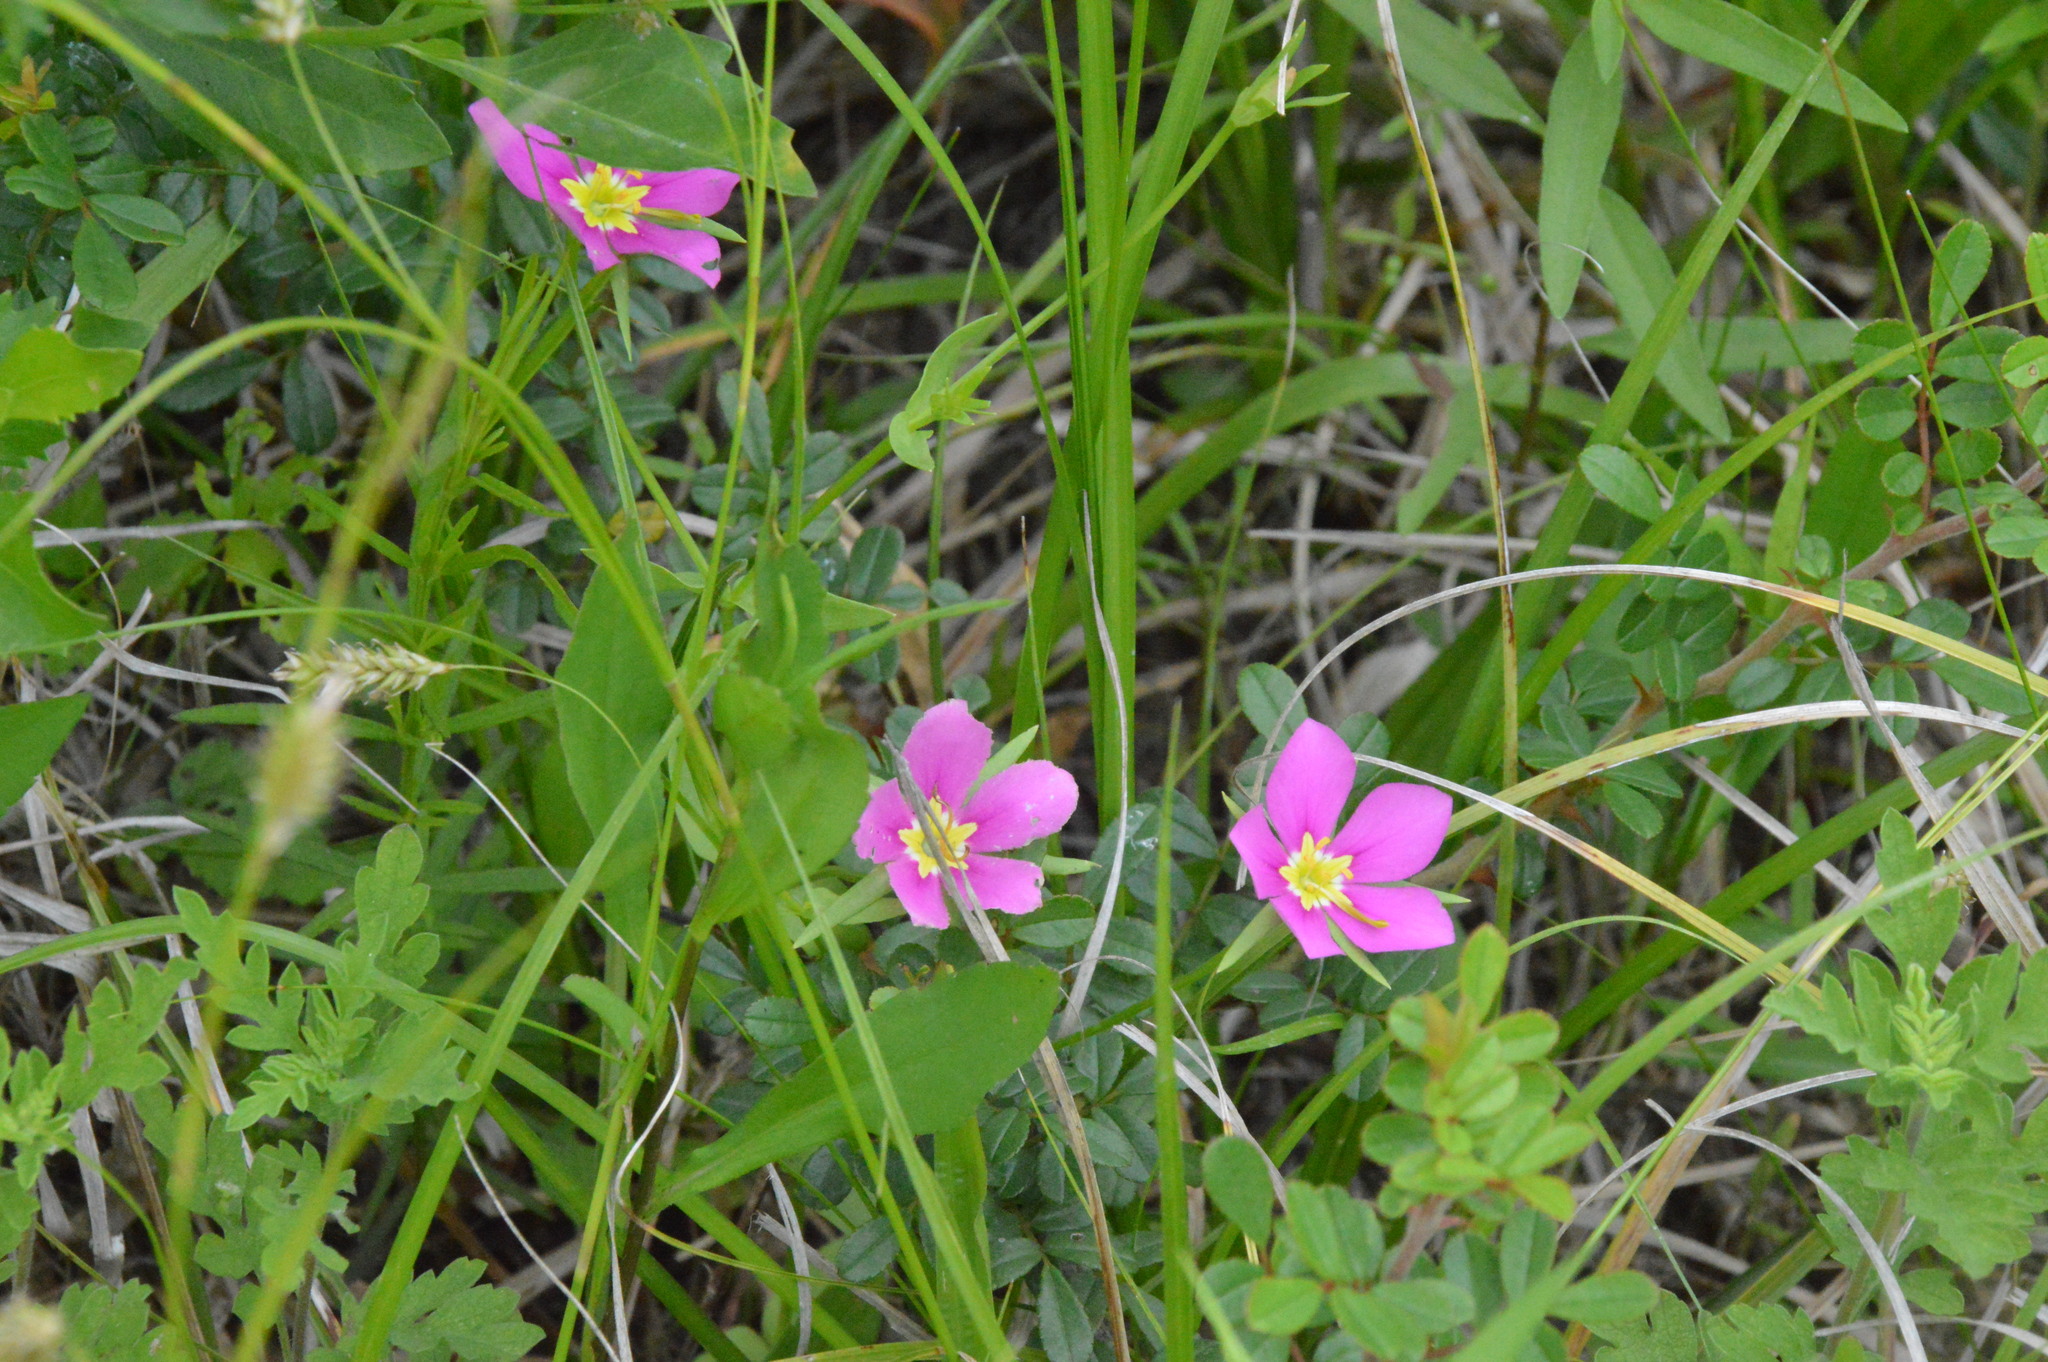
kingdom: Plantae
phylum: Tracheophyta
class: Magnoliopsida
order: Gentianales
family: Gentianaceae
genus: Sabatia
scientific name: Sabatia campestris
